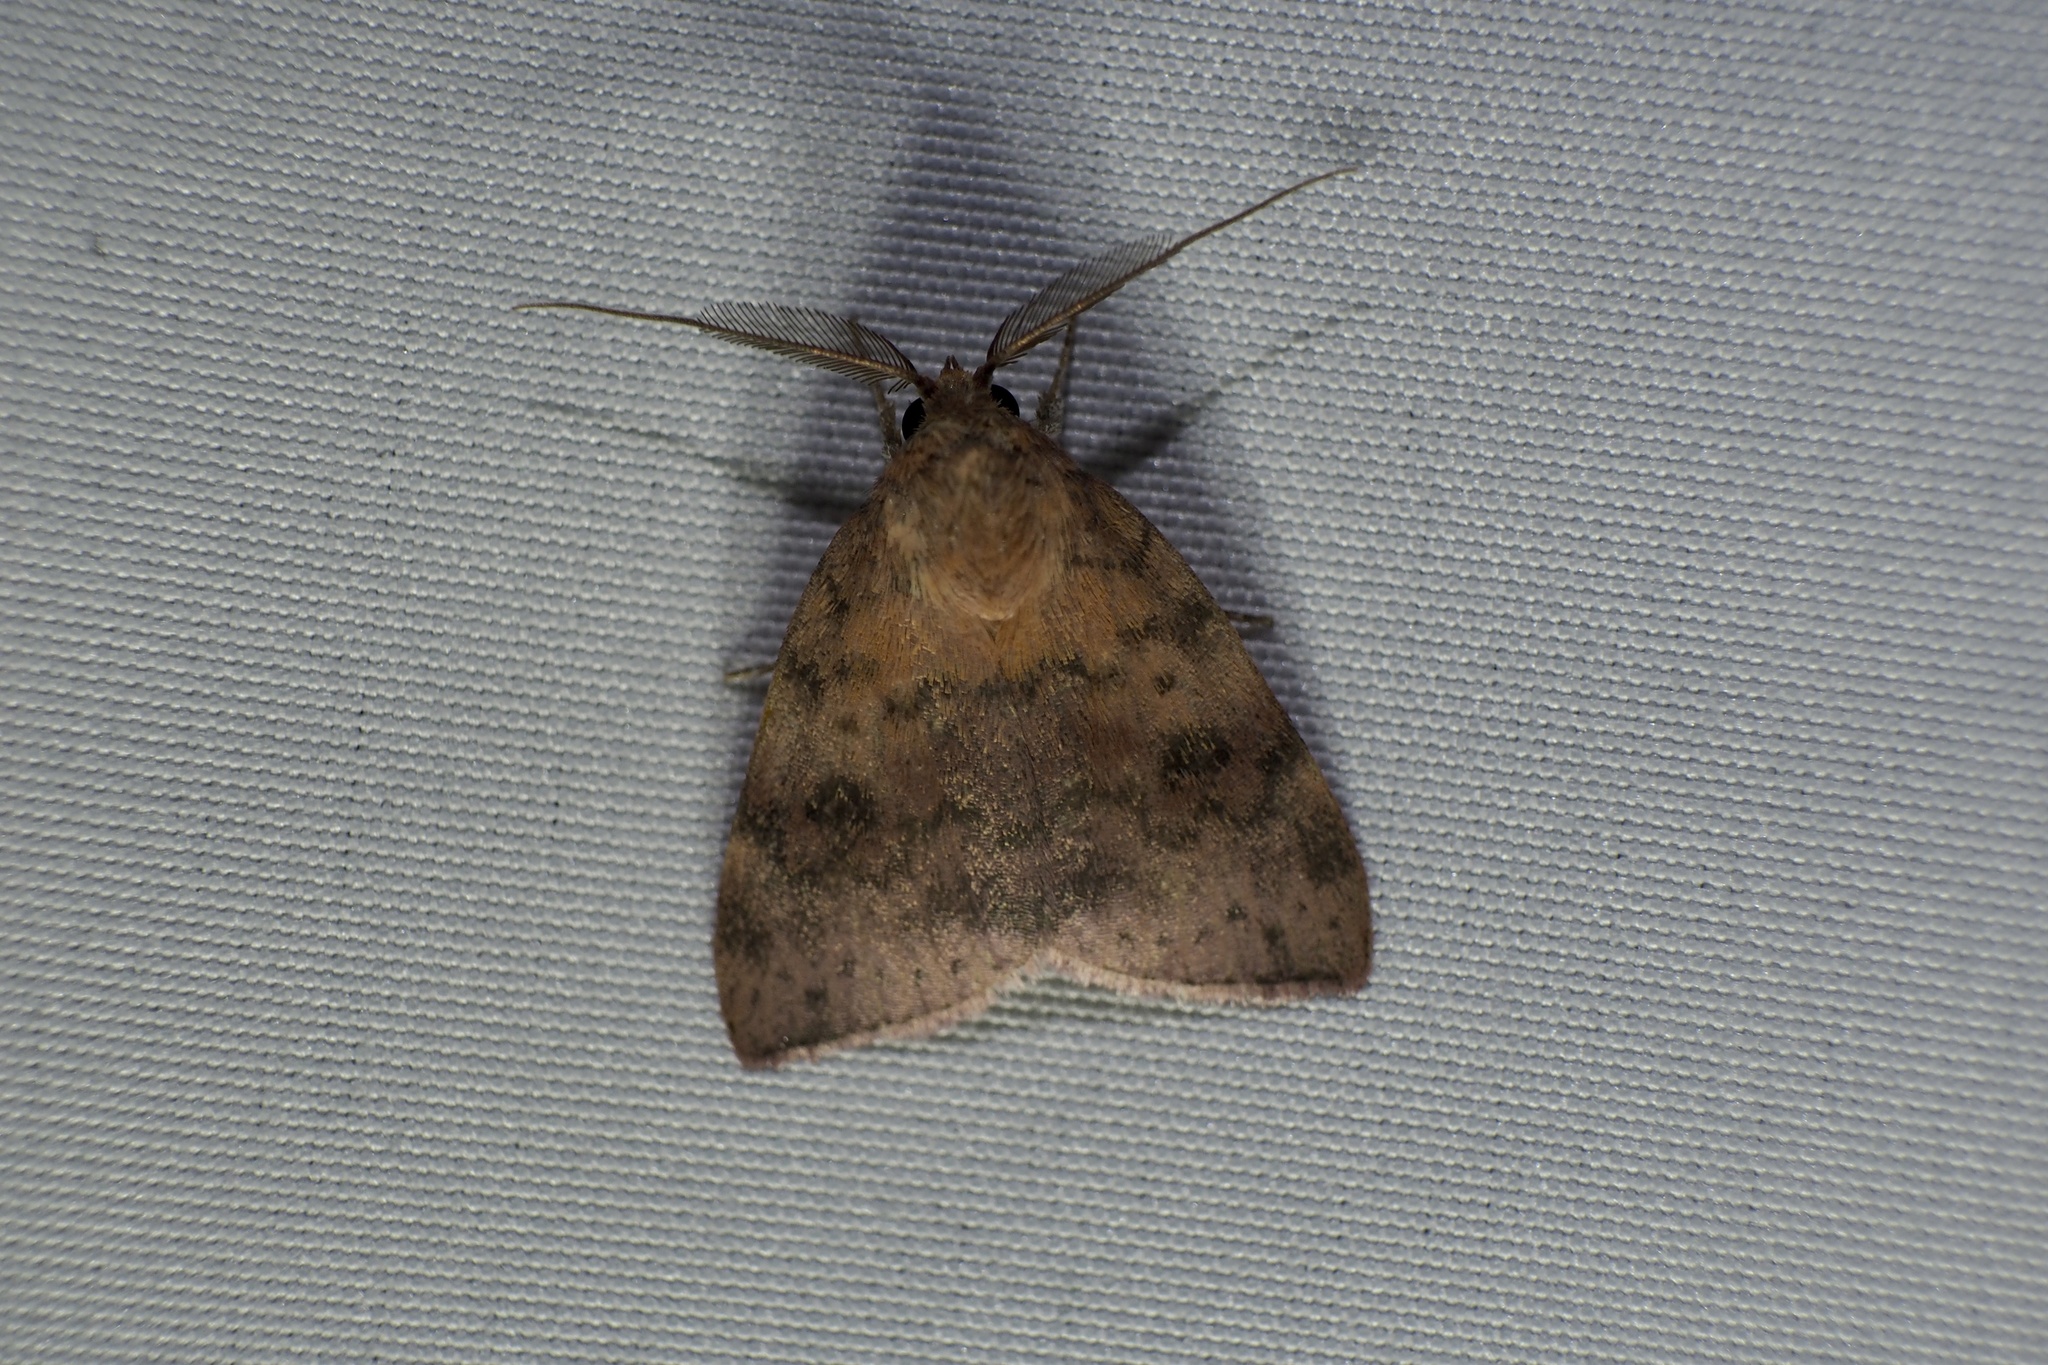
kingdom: Animalia
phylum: Arthropoda
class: Insecta
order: Lepidoptera
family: Nolidae
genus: Gelastocera
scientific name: Gelastocera kotshubeji
